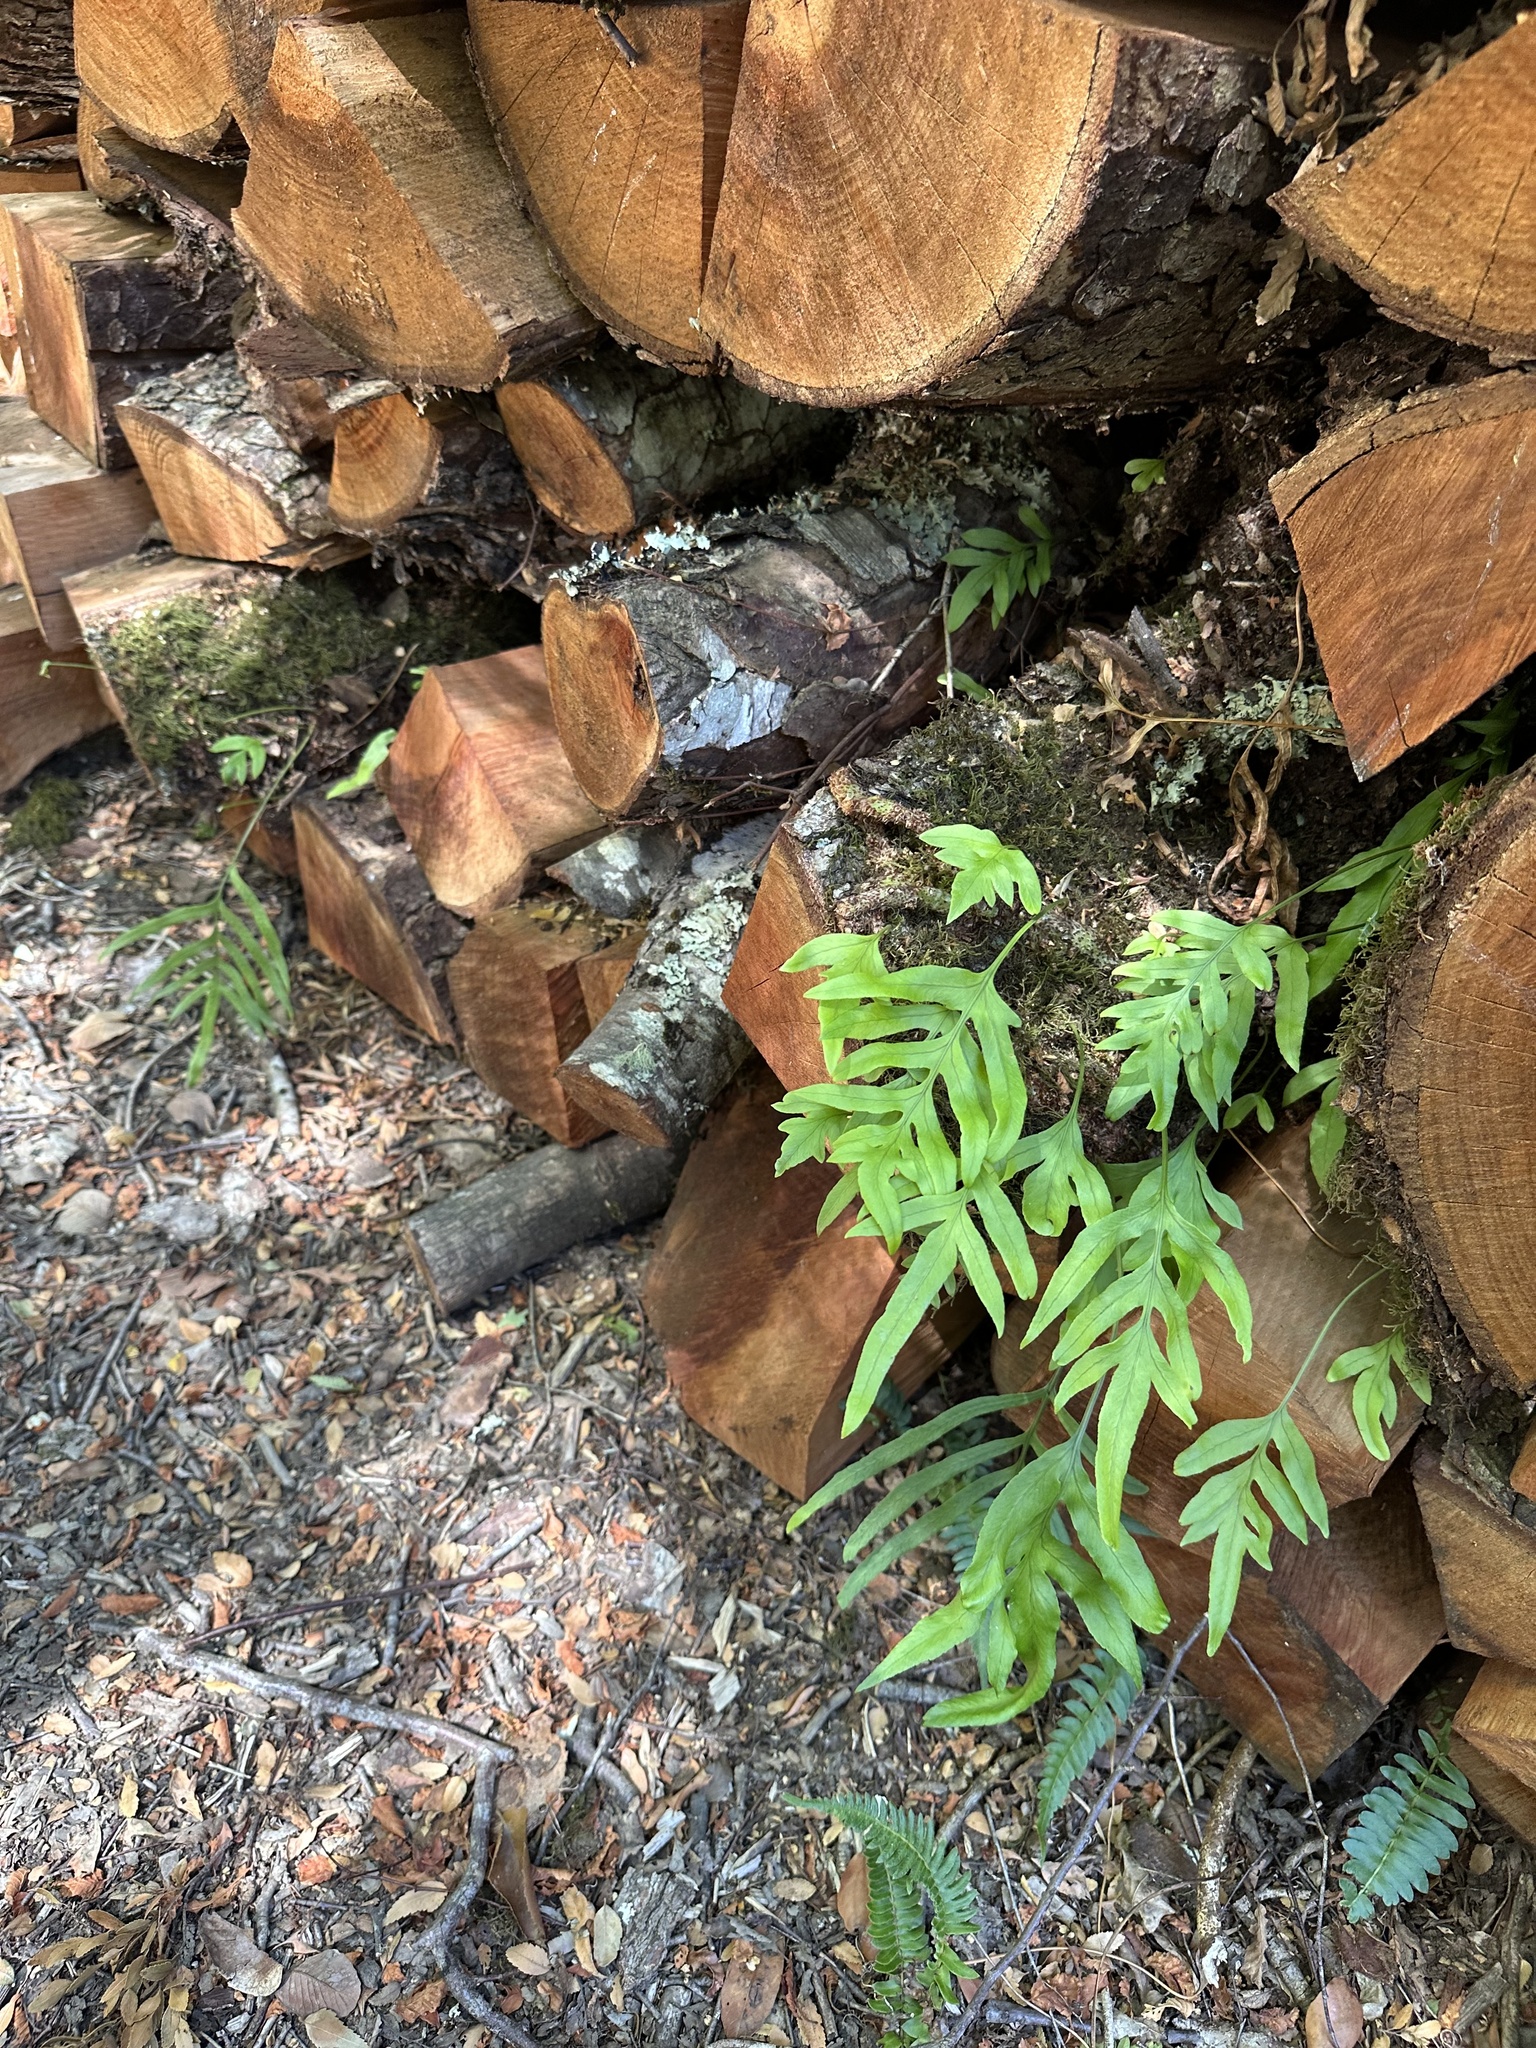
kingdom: Plantae
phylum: Tracheophyta
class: Polypodiopsida
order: Polypodiales
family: Polypodiaceae
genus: Synammia
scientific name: Synammia feuillei
